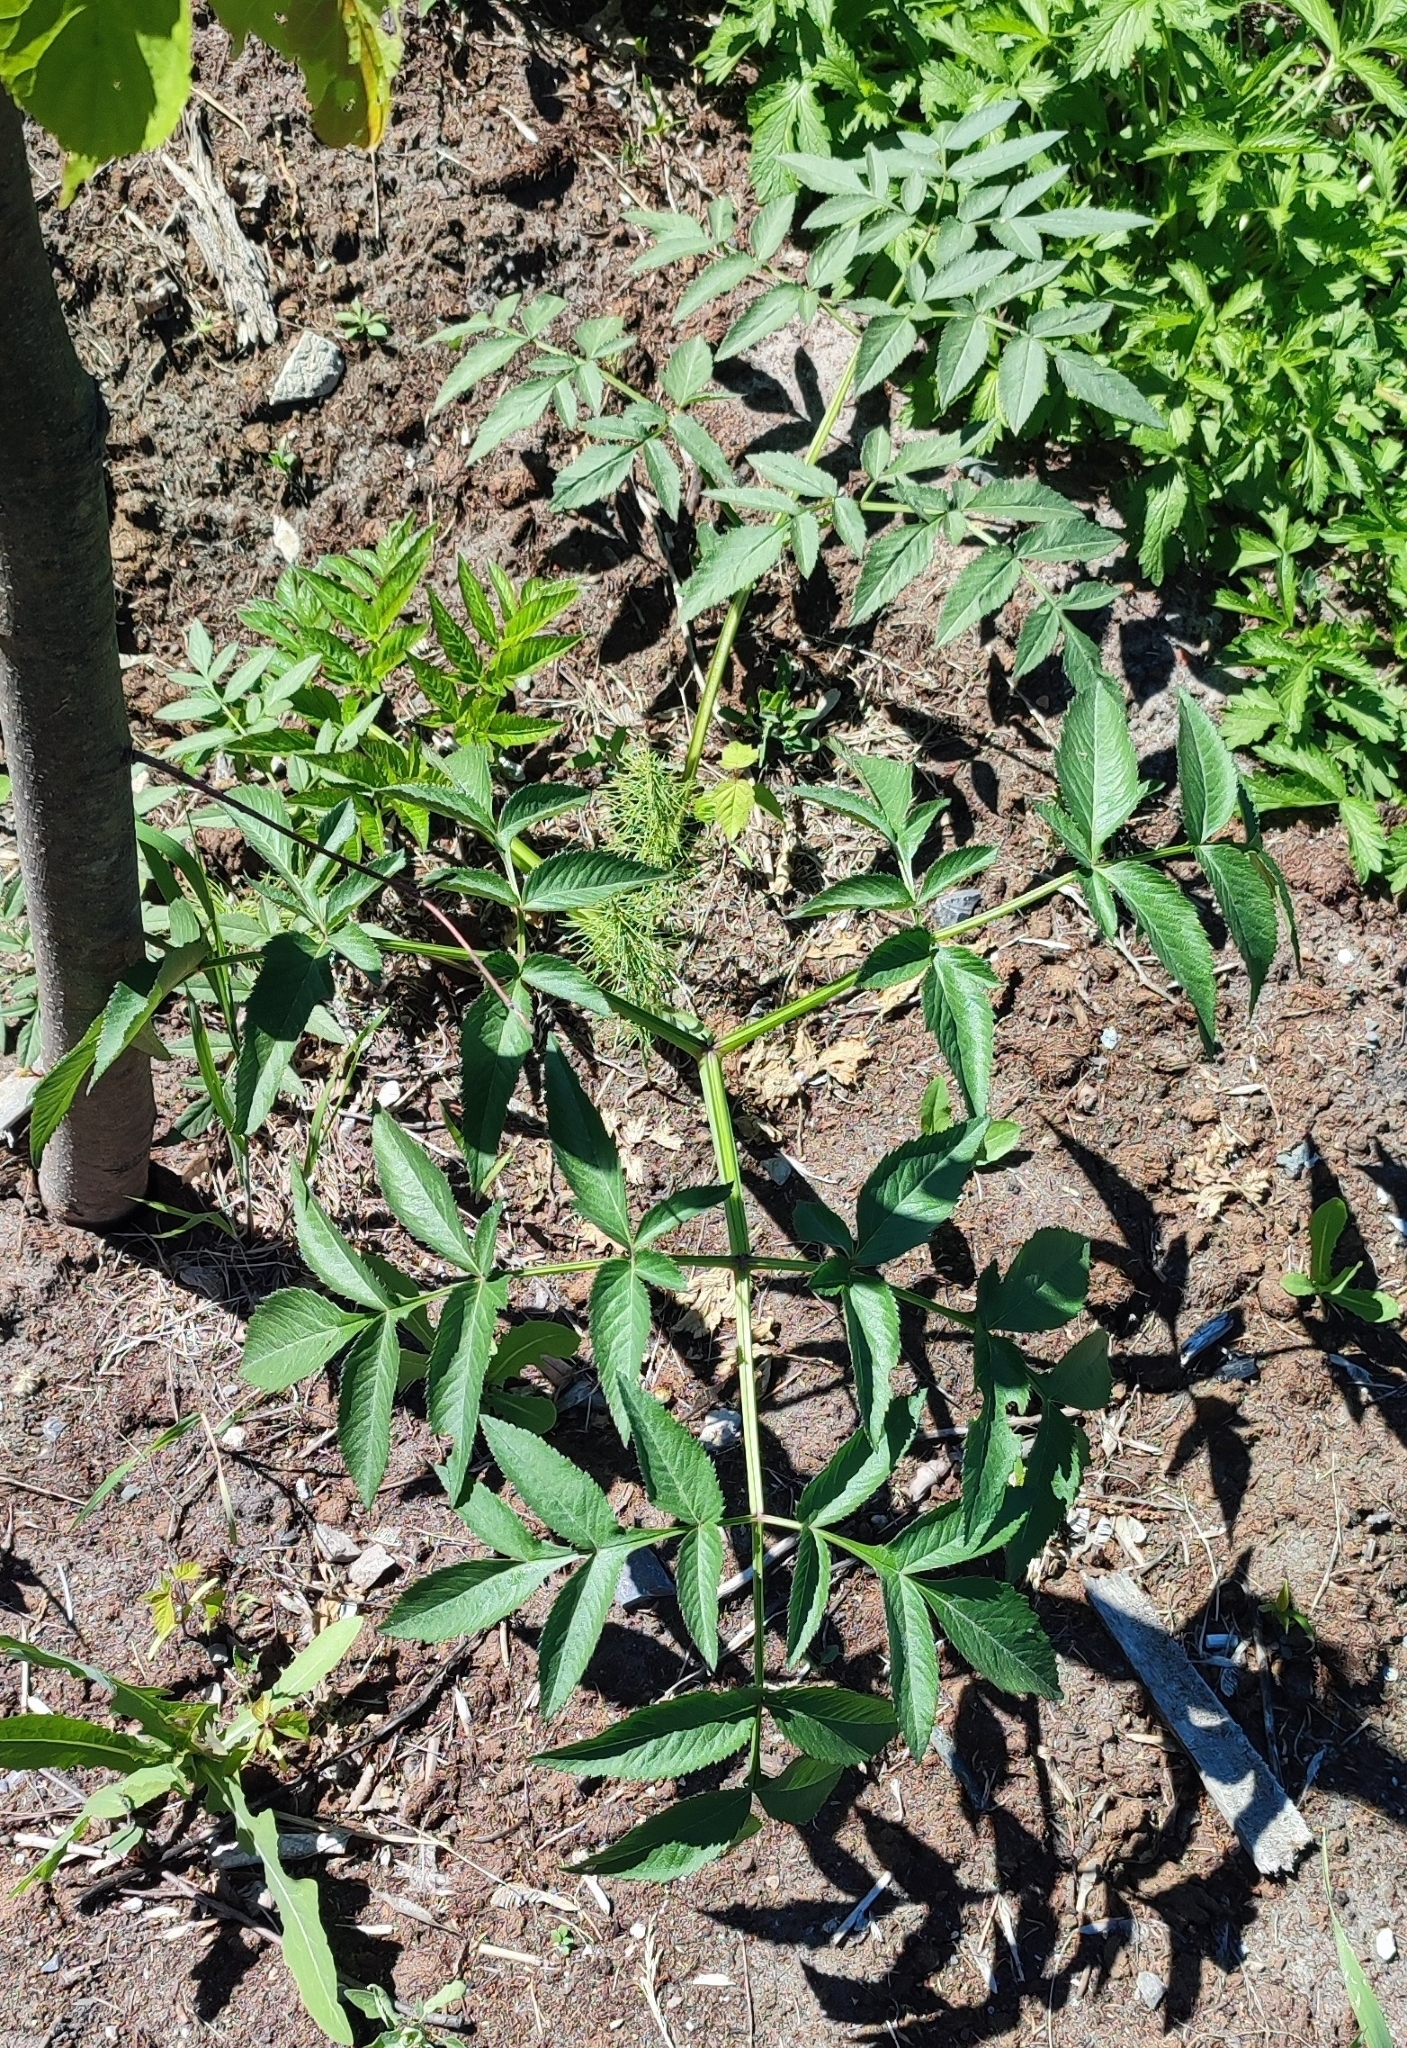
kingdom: Plantae
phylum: Tracheophyta
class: Magnoliopsida
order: Apiales
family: Apiaceae
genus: Angelica
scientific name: Angelica sylvestris
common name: Wild angelica
